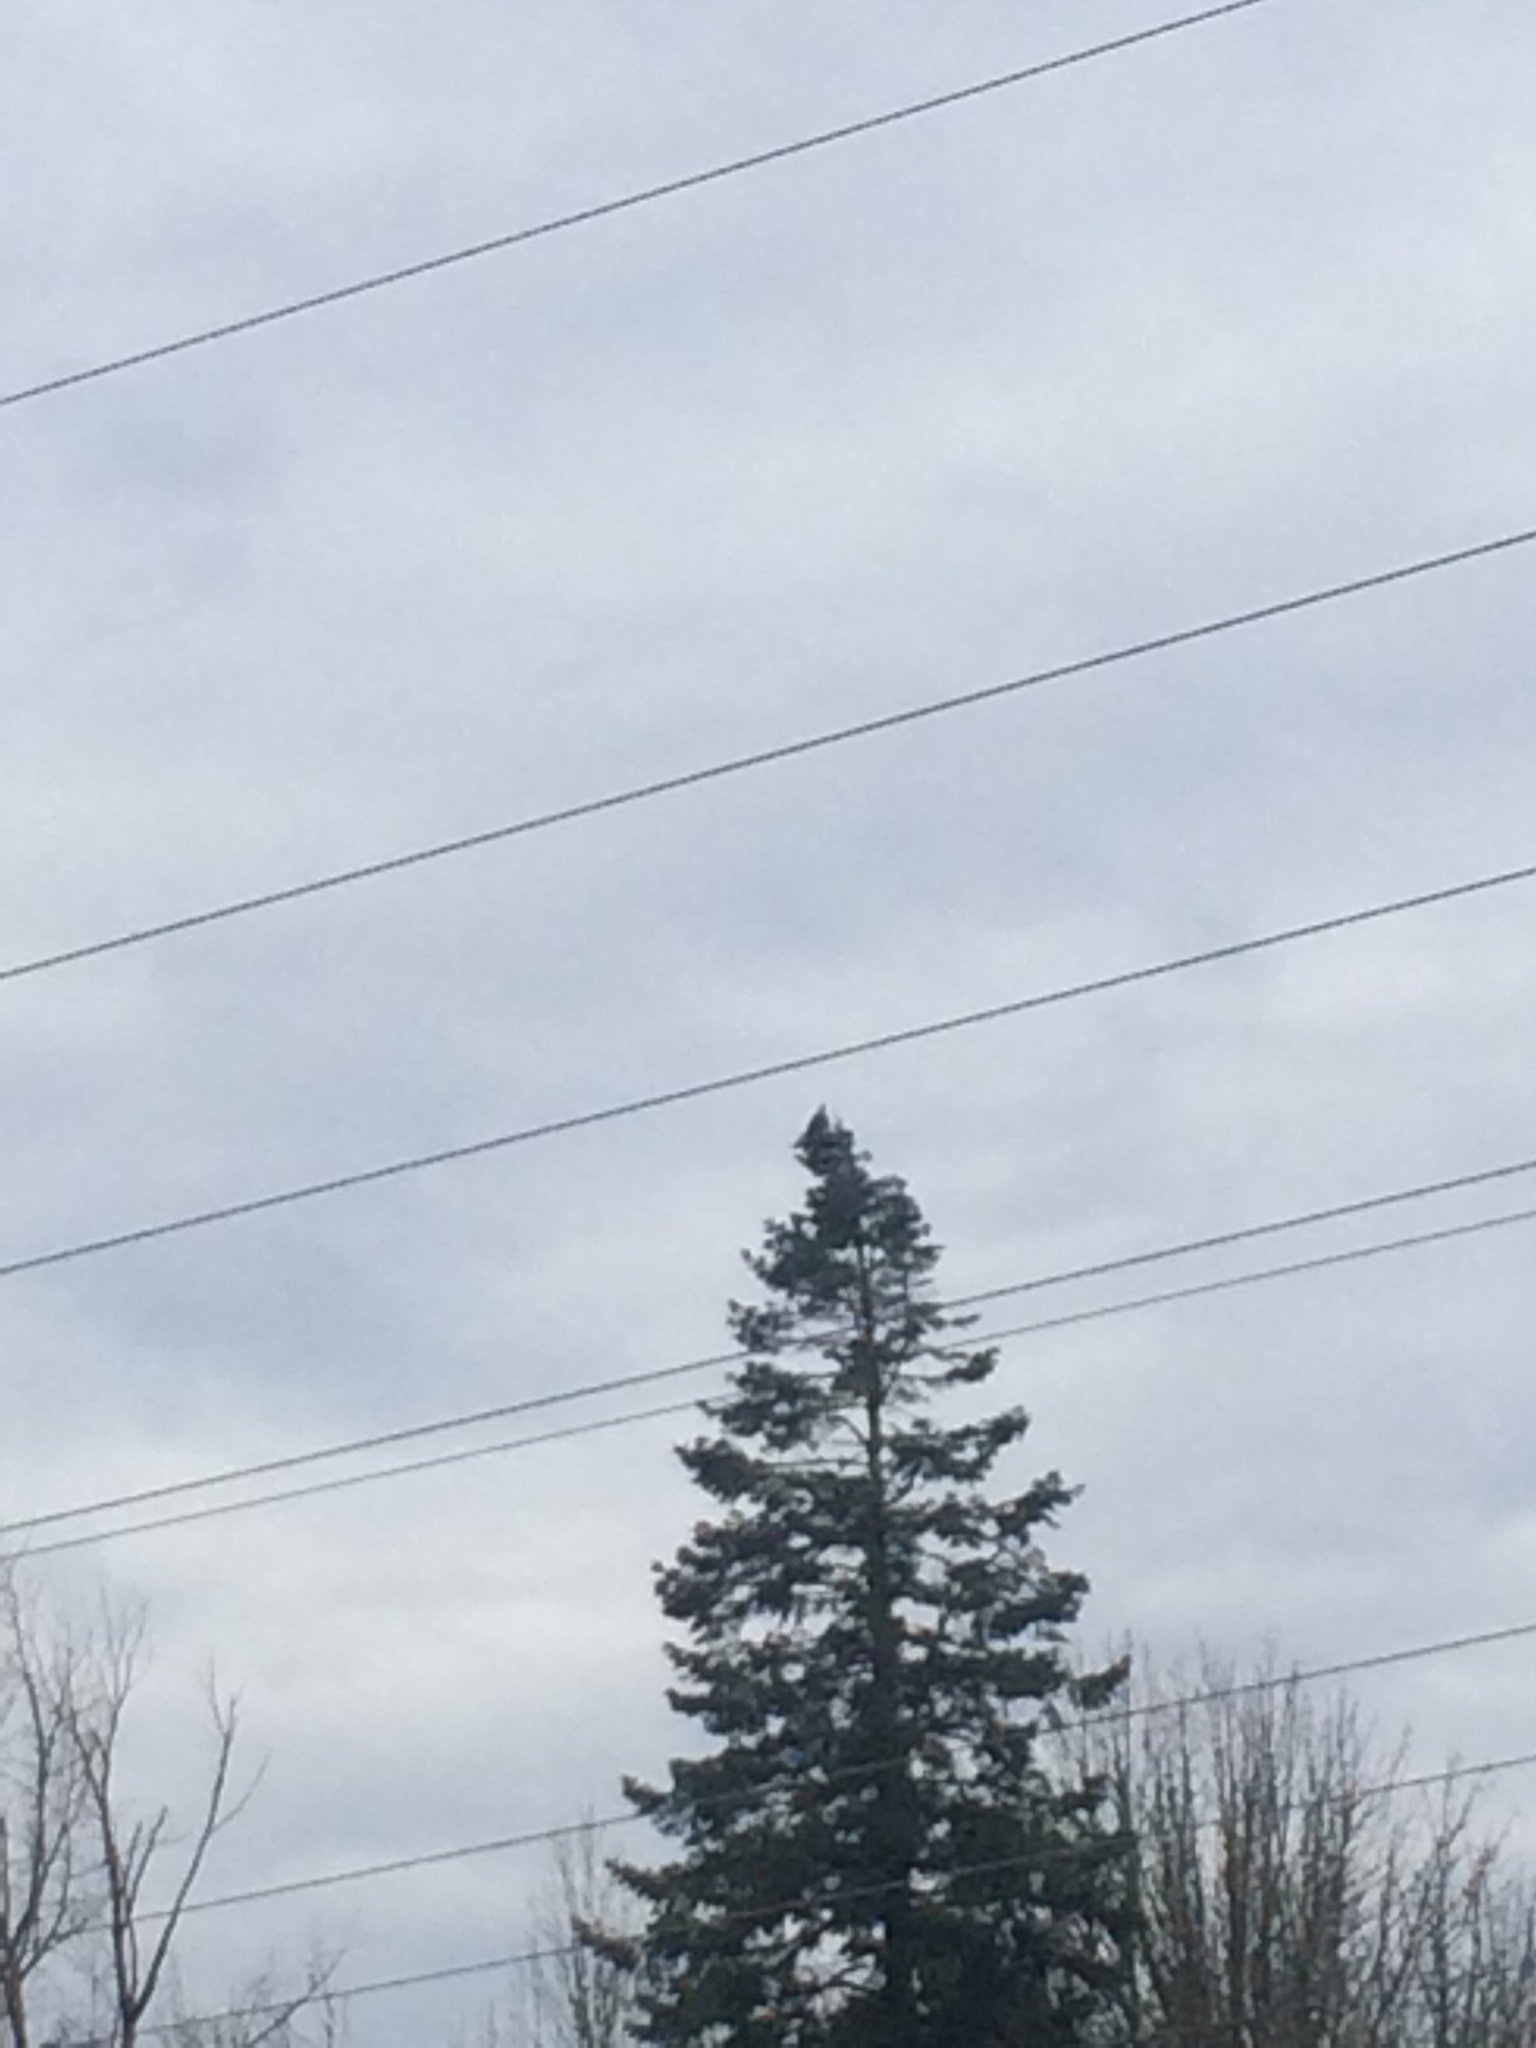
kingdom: Animalia
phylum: Chordata
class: Aves
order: Accipitriformes
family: Accipitridae
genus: Haliaeetus
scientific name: Haliaeetus leucocephalus
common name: Bald eagle
